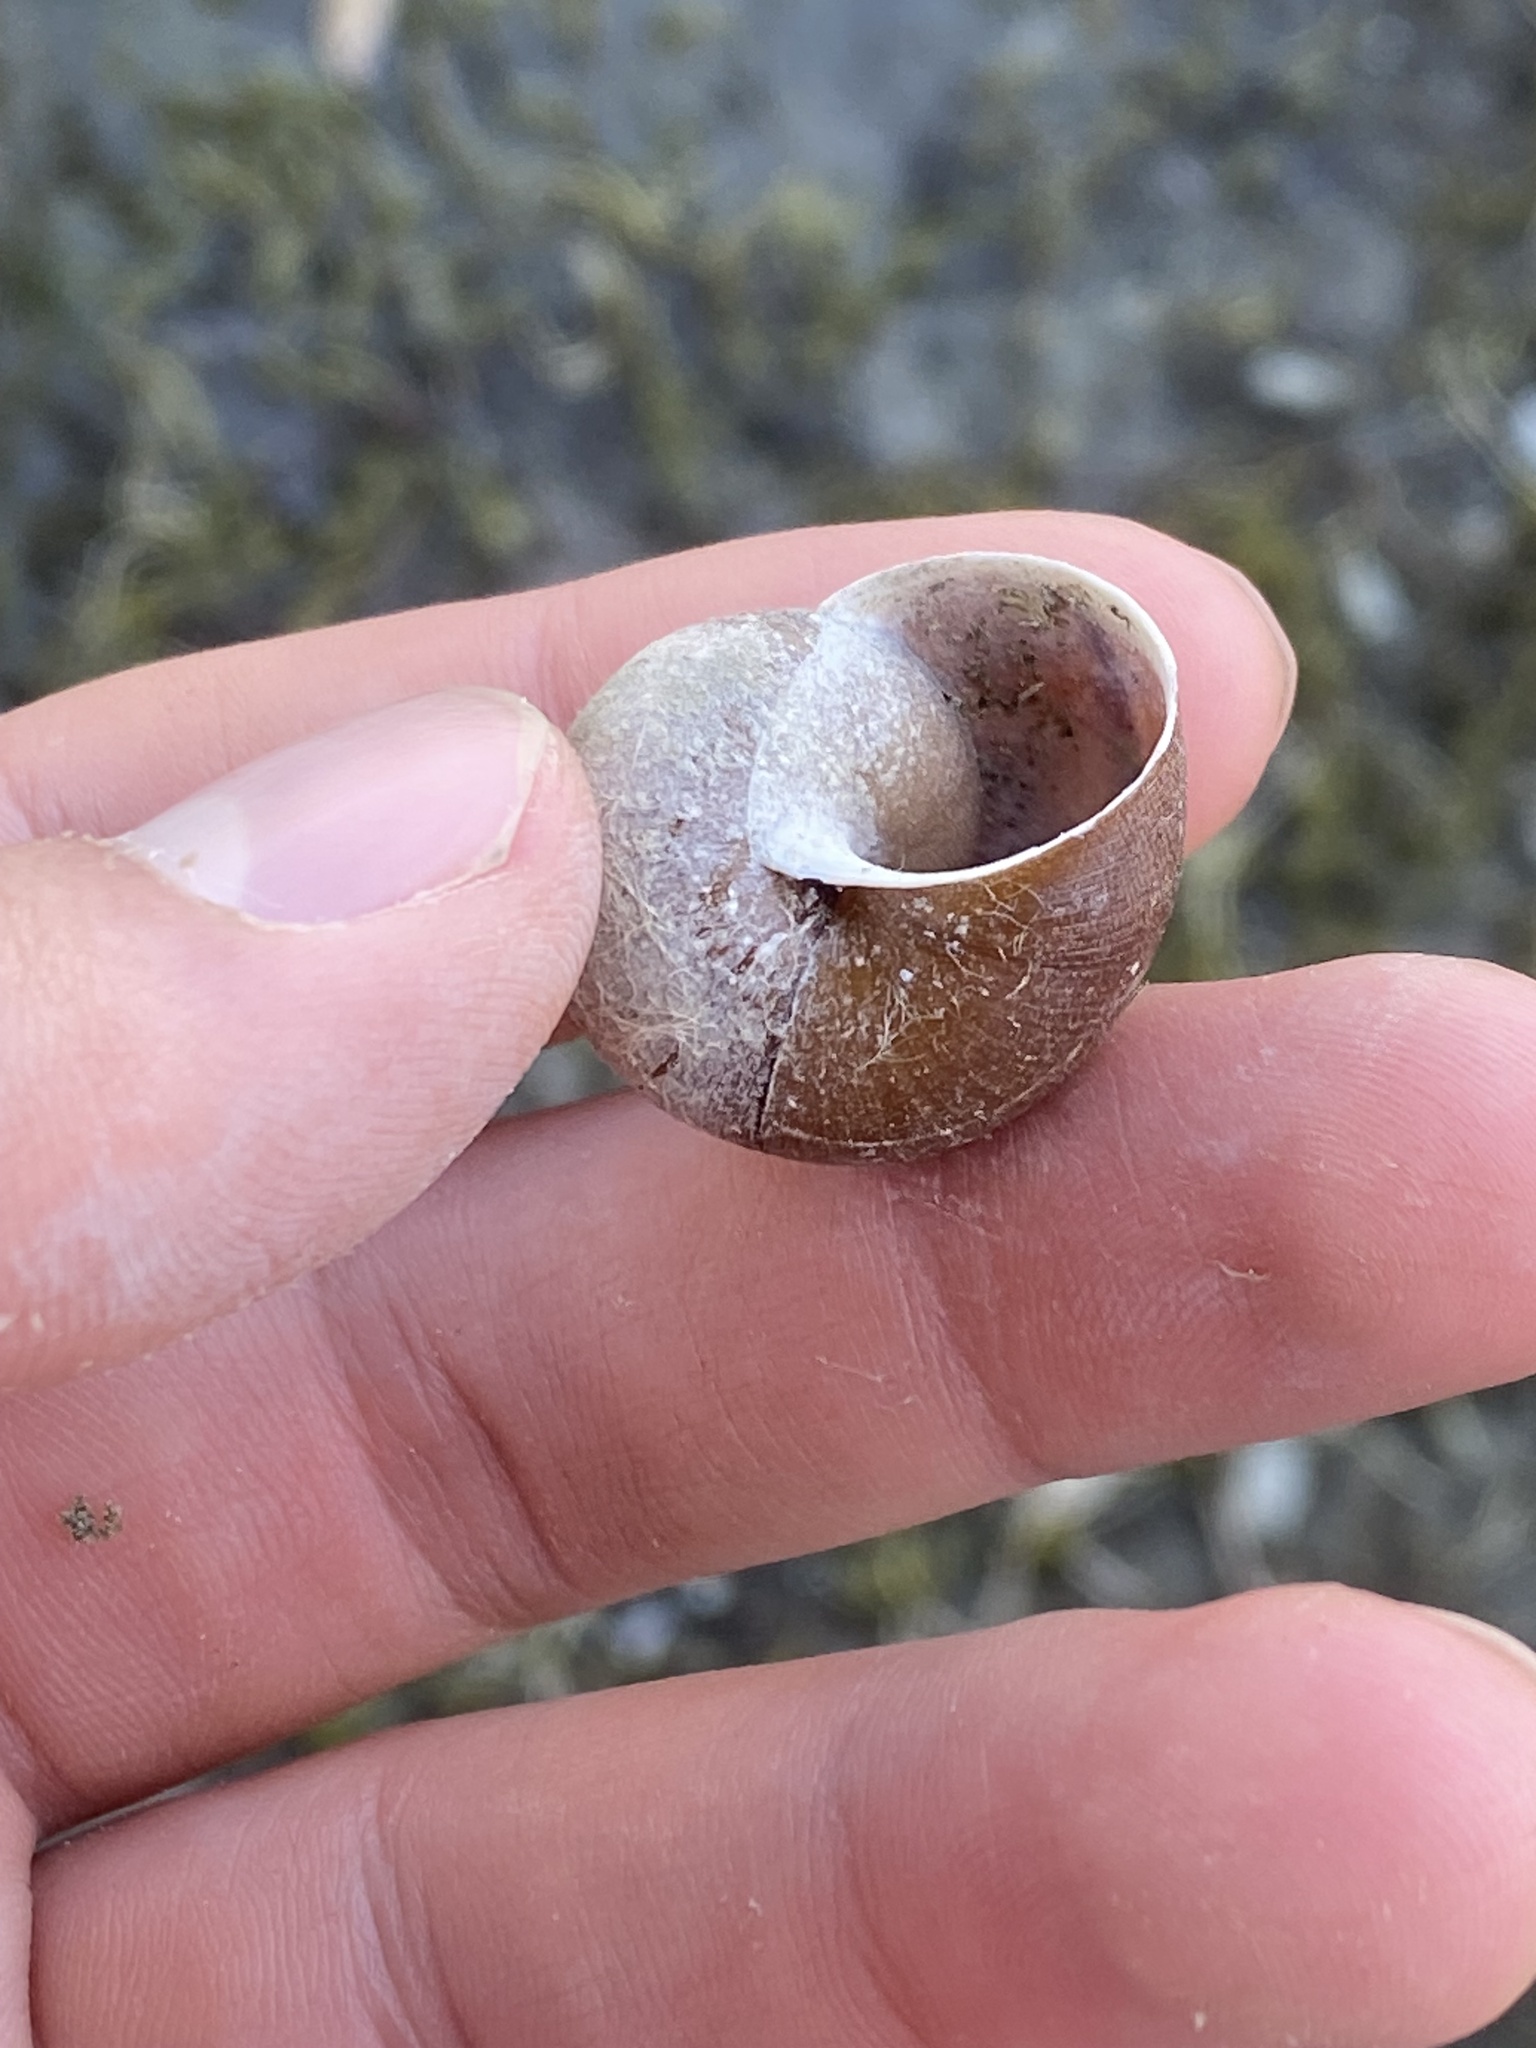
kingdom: Animalia
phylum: Mollusca
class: Gastropoda
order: Stylommatophora
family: Xanthonychidae
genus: Helminthoglypta
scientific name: Helminthoglypta nickliniana
